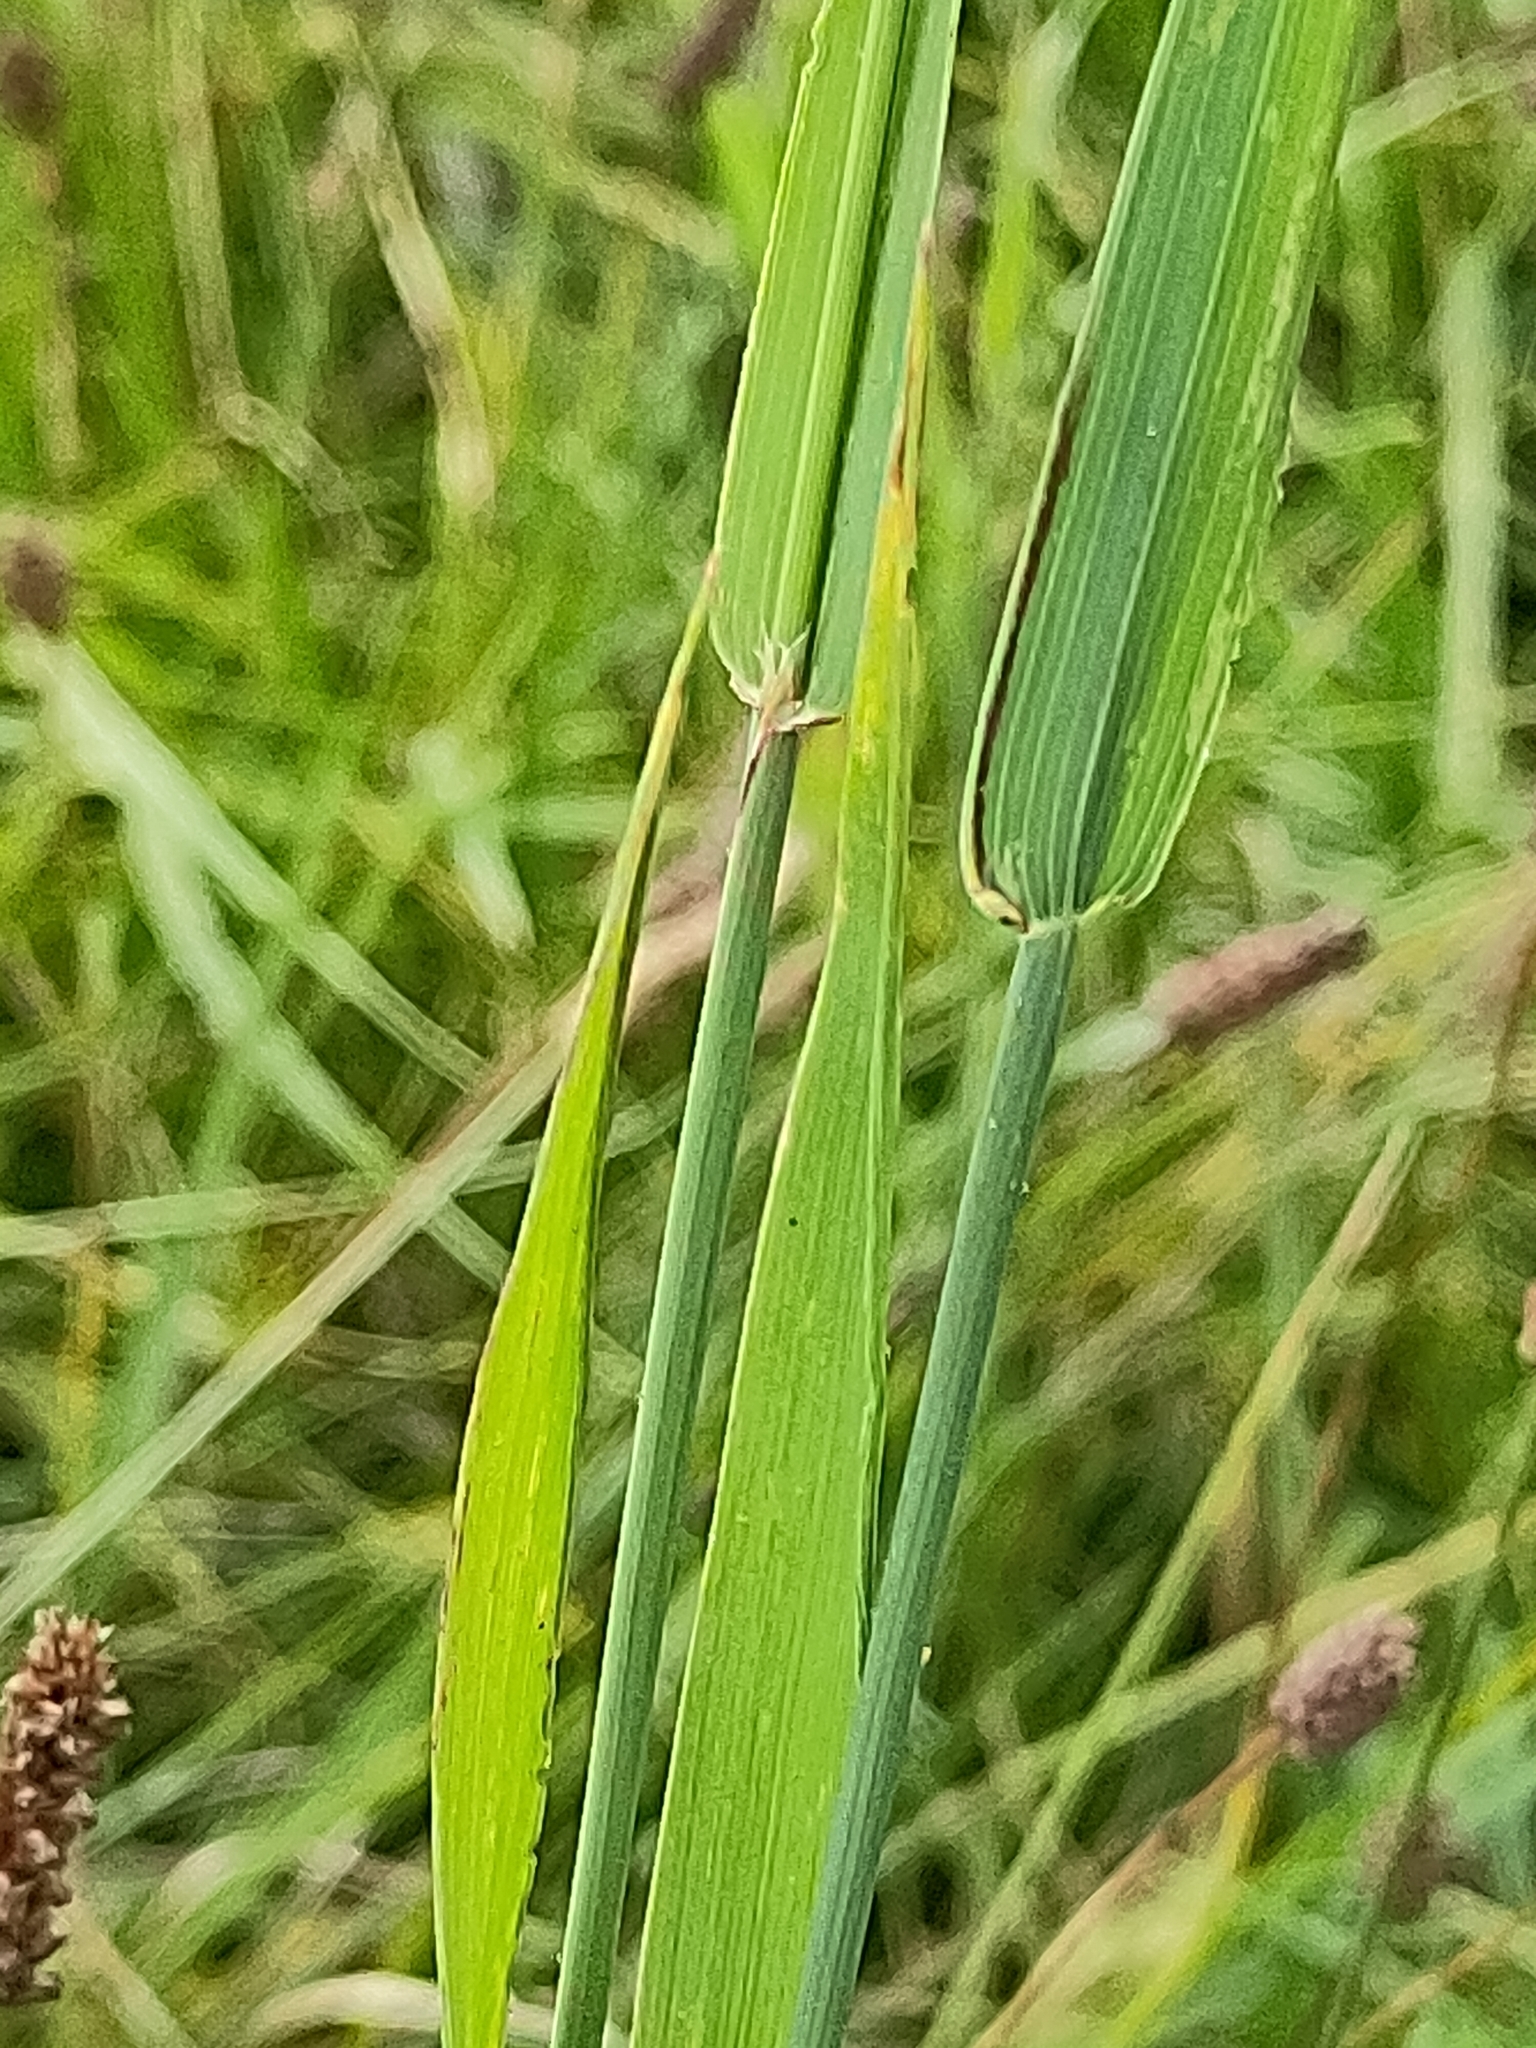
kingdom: Plantae
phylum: Tracheophyta
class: Liliopsida
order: Poales
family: Poaceae
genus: Phleum
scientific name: Phleum pratense
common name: Timothy grass
